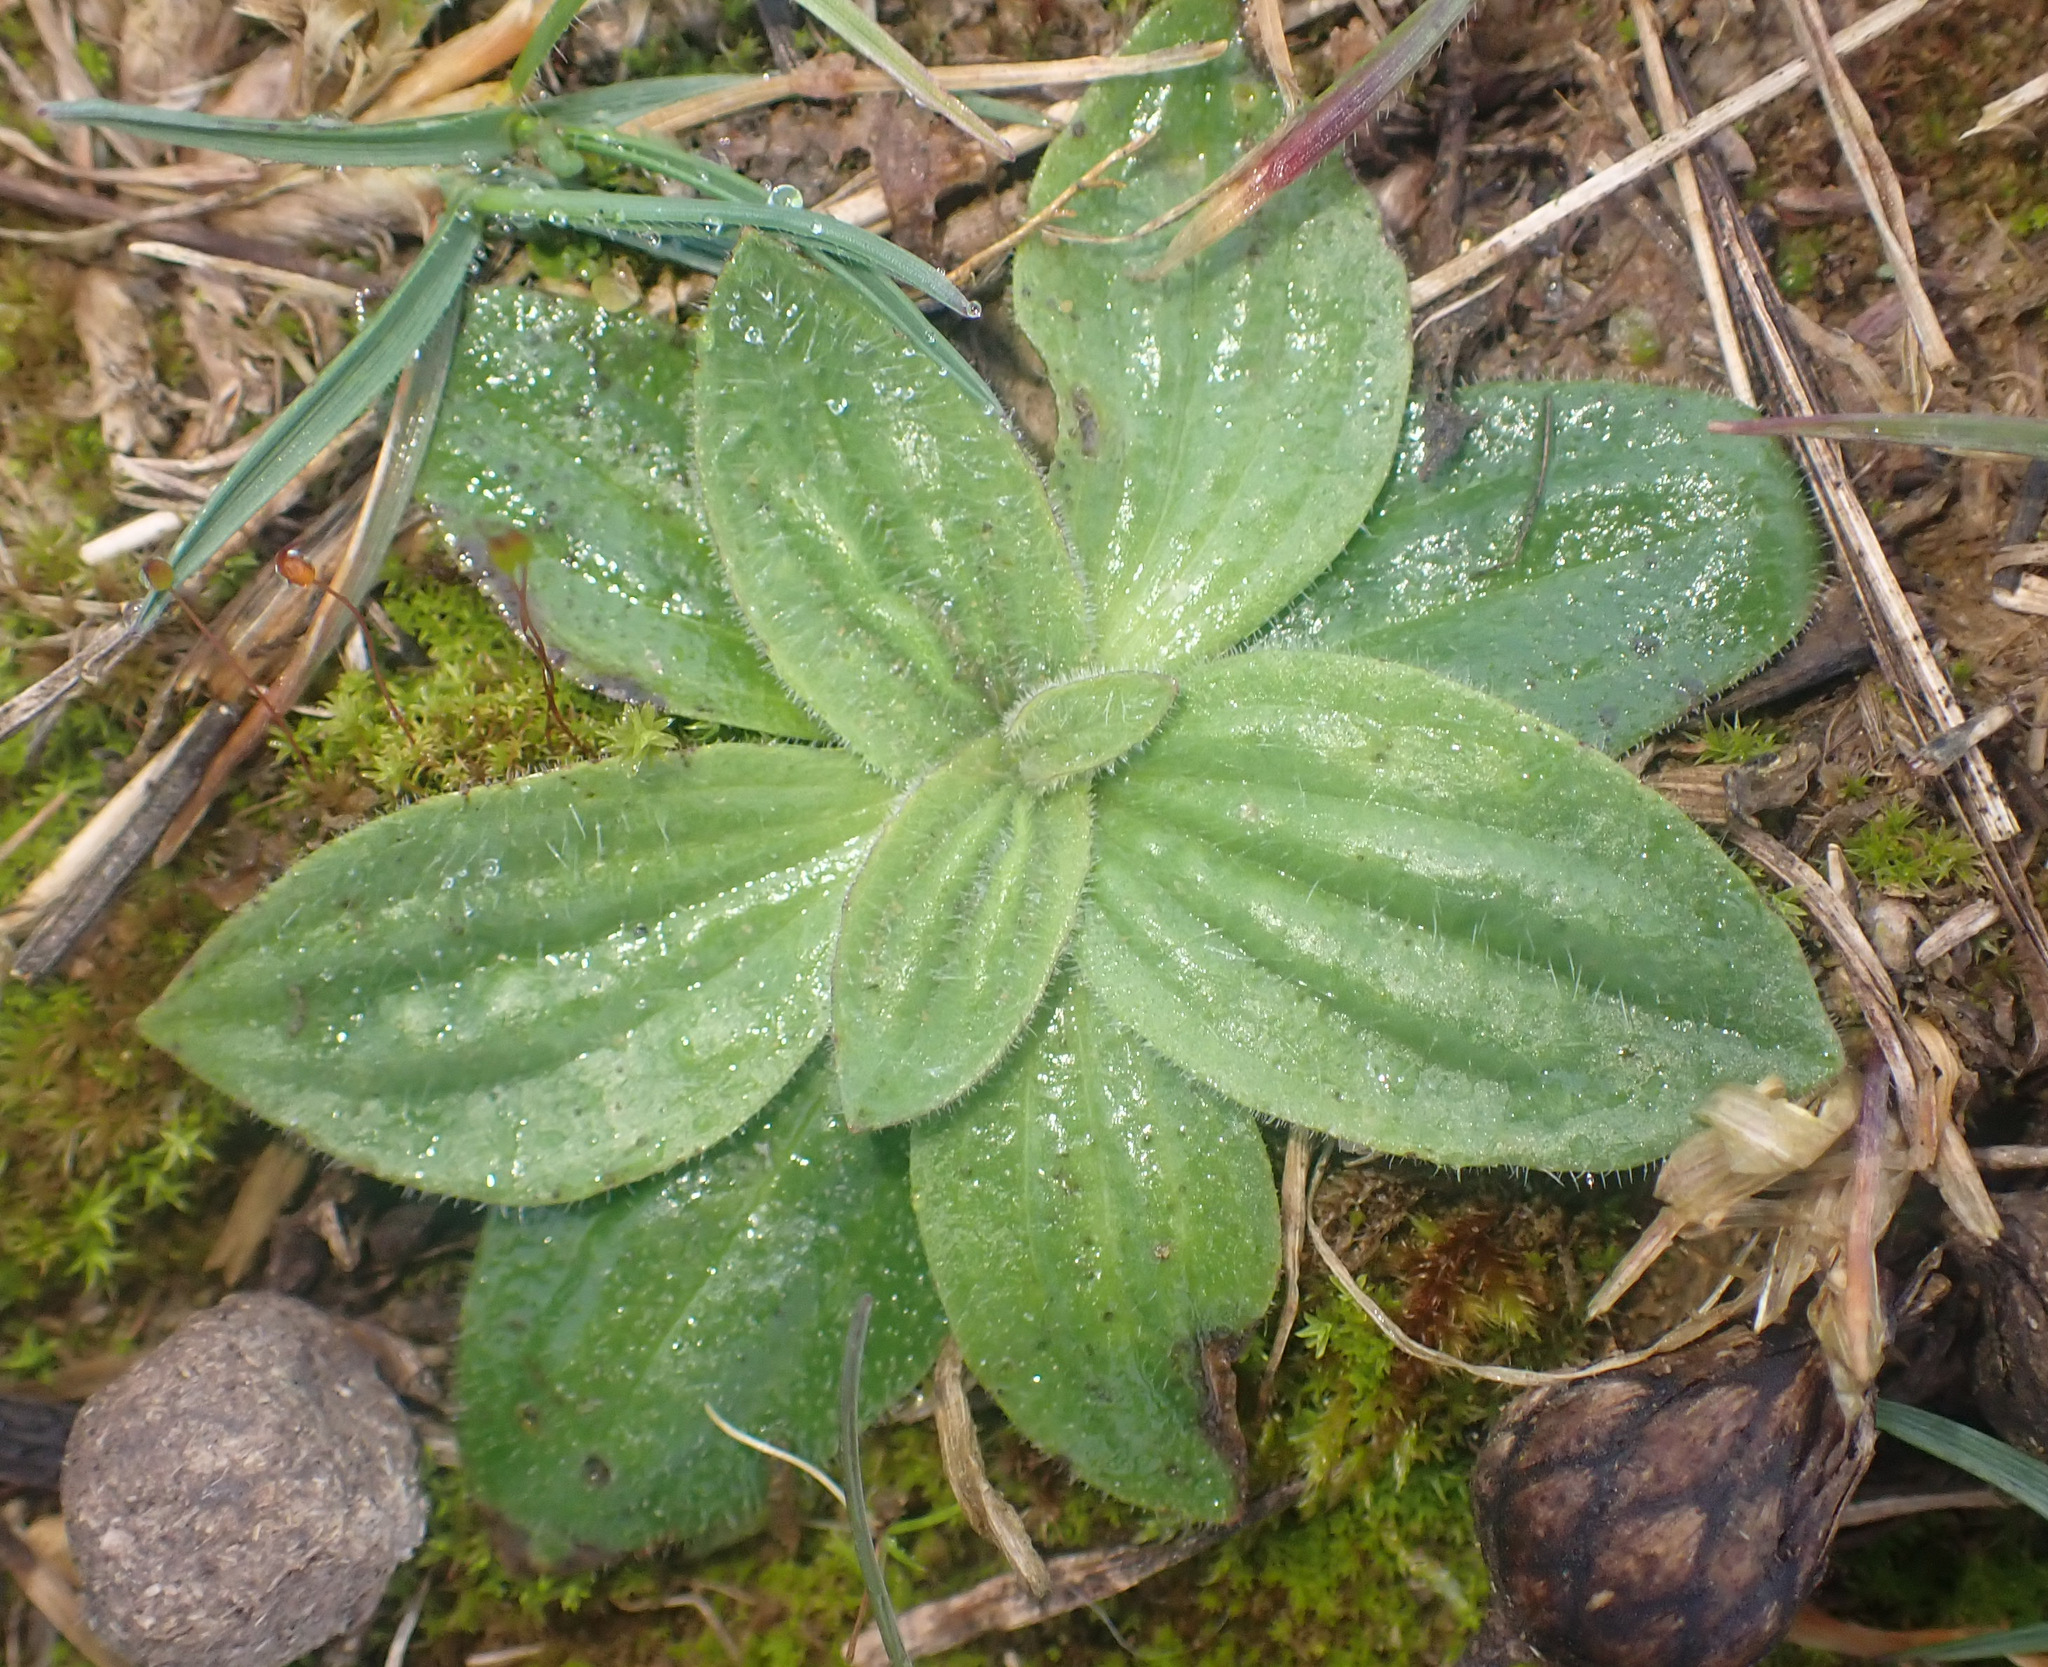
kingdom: Plantae
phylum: Tracheophyta
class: Magnoliopsida
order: Lamiales
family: Plantaginaceae
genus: Plantago
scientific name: Plantago media
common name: Hoary plantain
